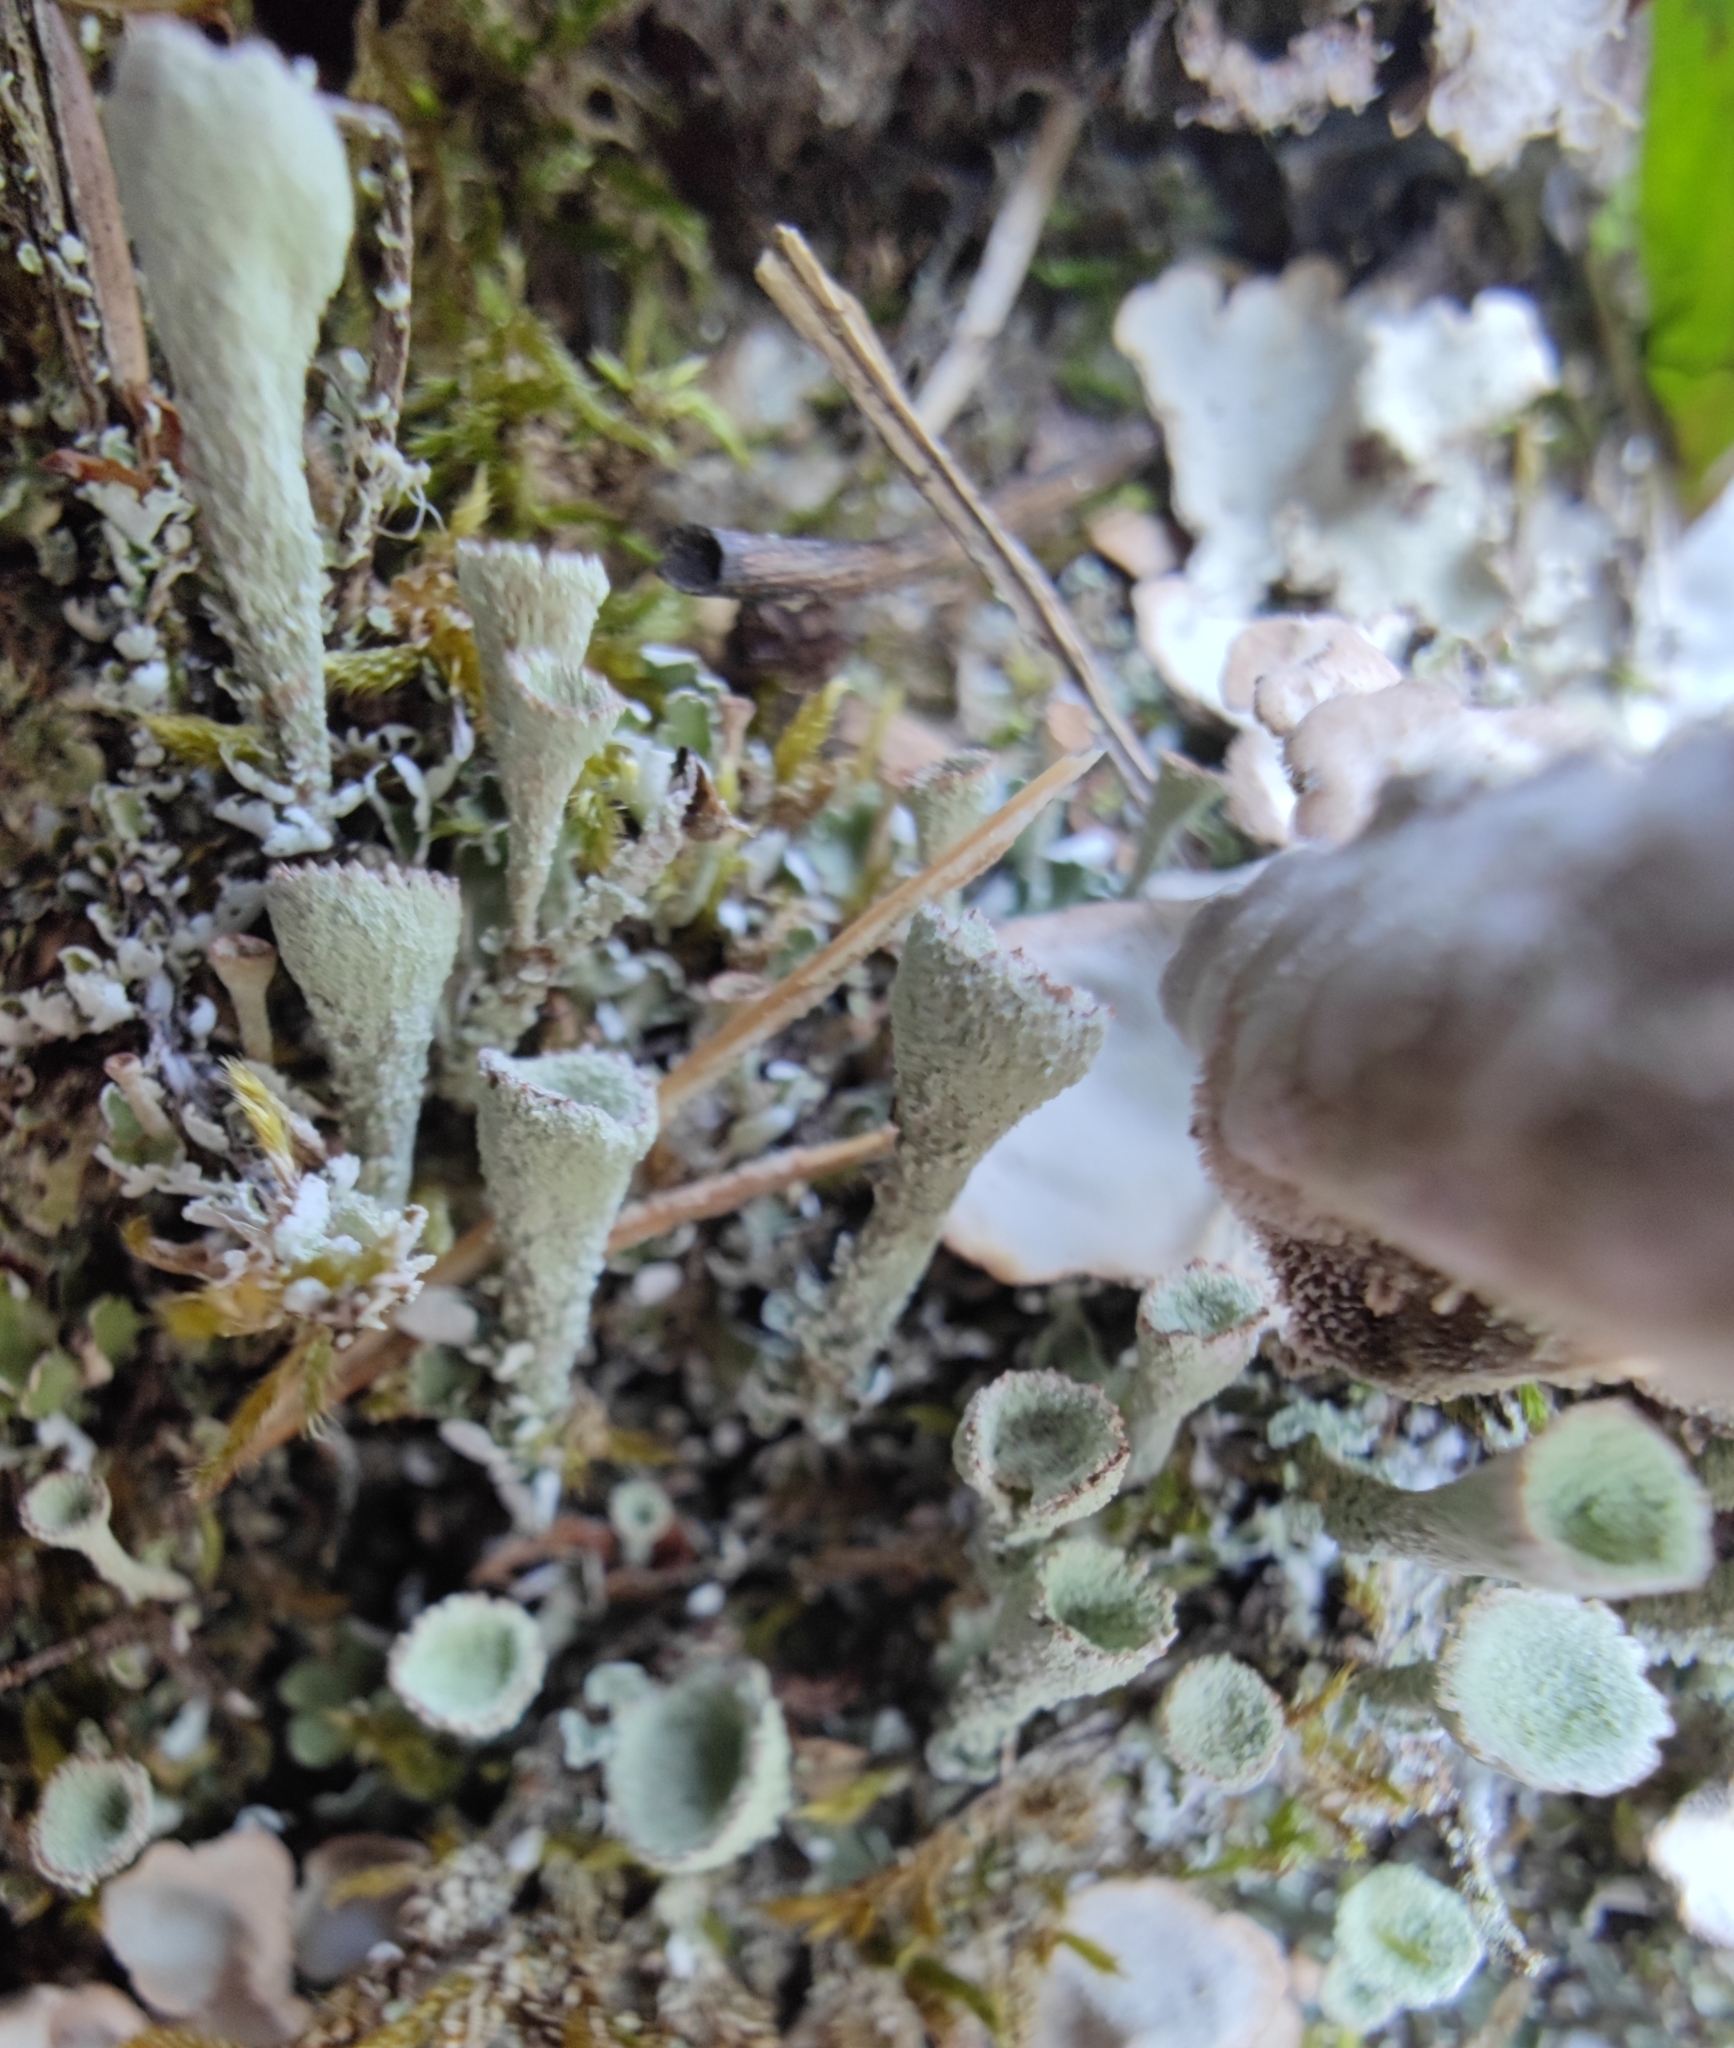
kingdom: Fungi
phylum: Ascomycota
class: Lecanoromycetes
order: Lecanorales
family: Cladoniaceae
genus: Cladonia
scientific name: Cladonia
